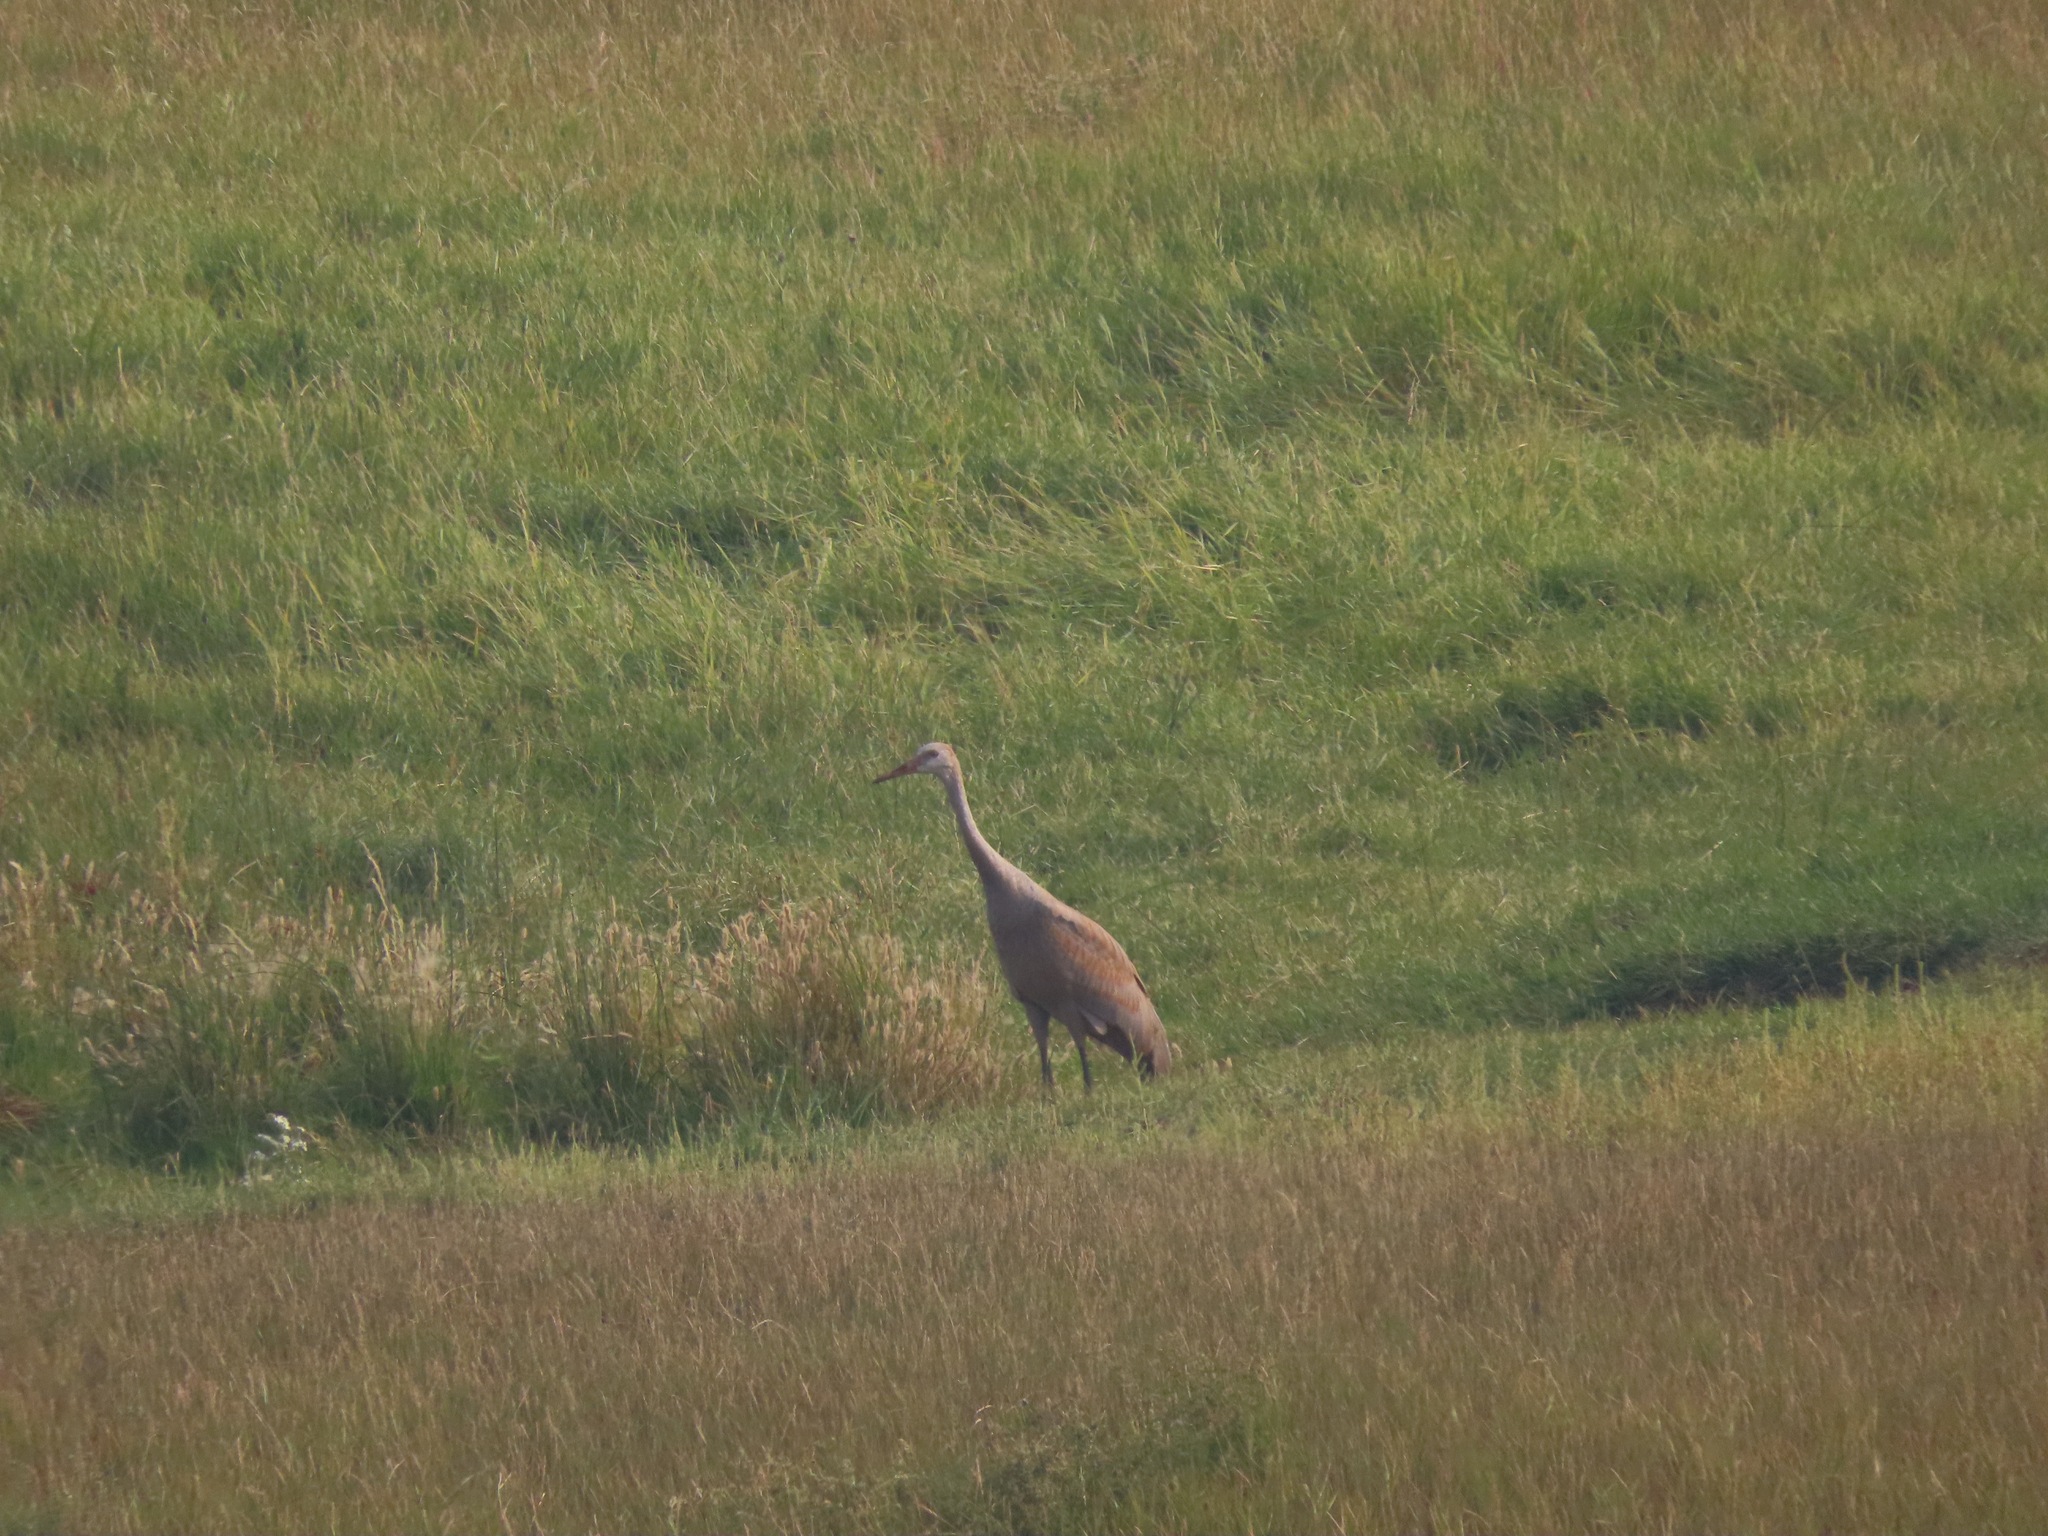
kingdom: Animalia
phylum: Chordata
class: Aves
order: Gruiformes
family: Gruidae
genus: Grus
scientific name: Grus canadensis
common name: Sandhill crane
